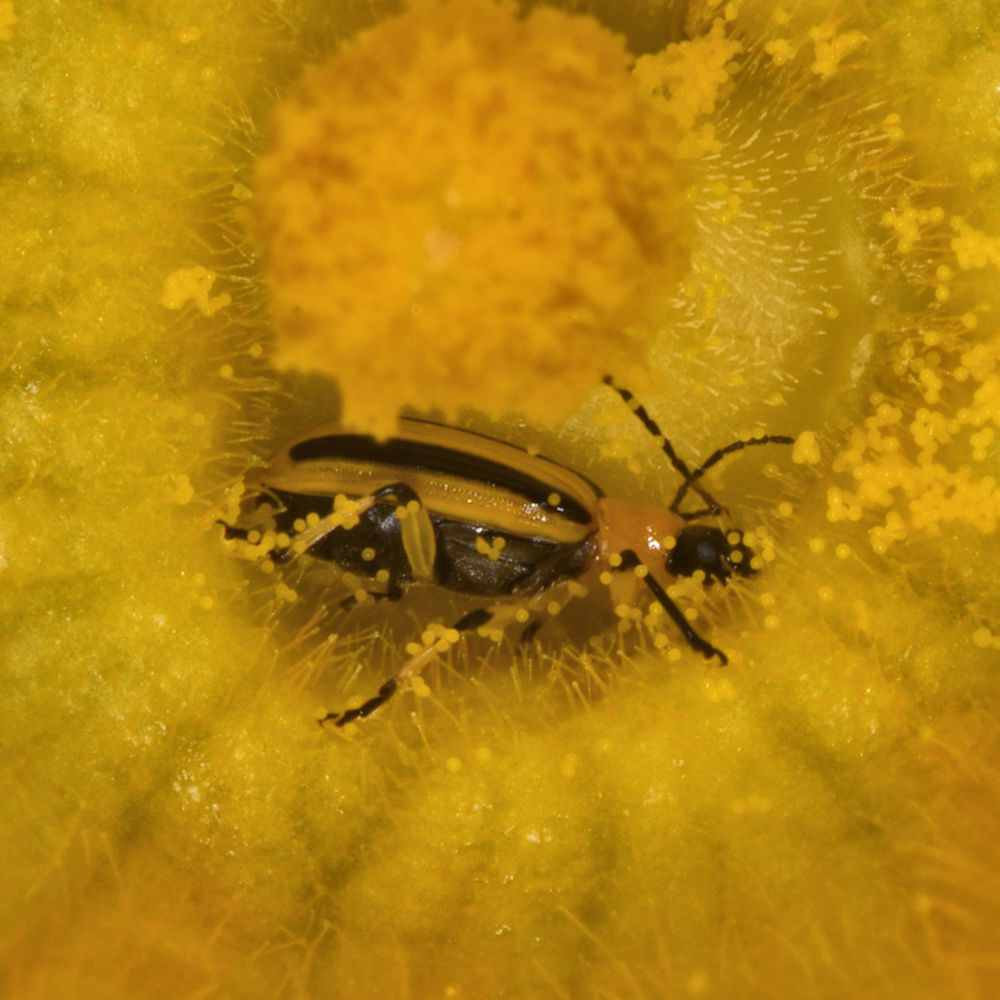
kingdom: Animalia
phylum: Arthropoda
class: Insecta
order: Coleoptera
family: Chrysomelidae
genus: Acalymma
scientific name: Acalymma vittatum
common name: Striped cucumber beetle
